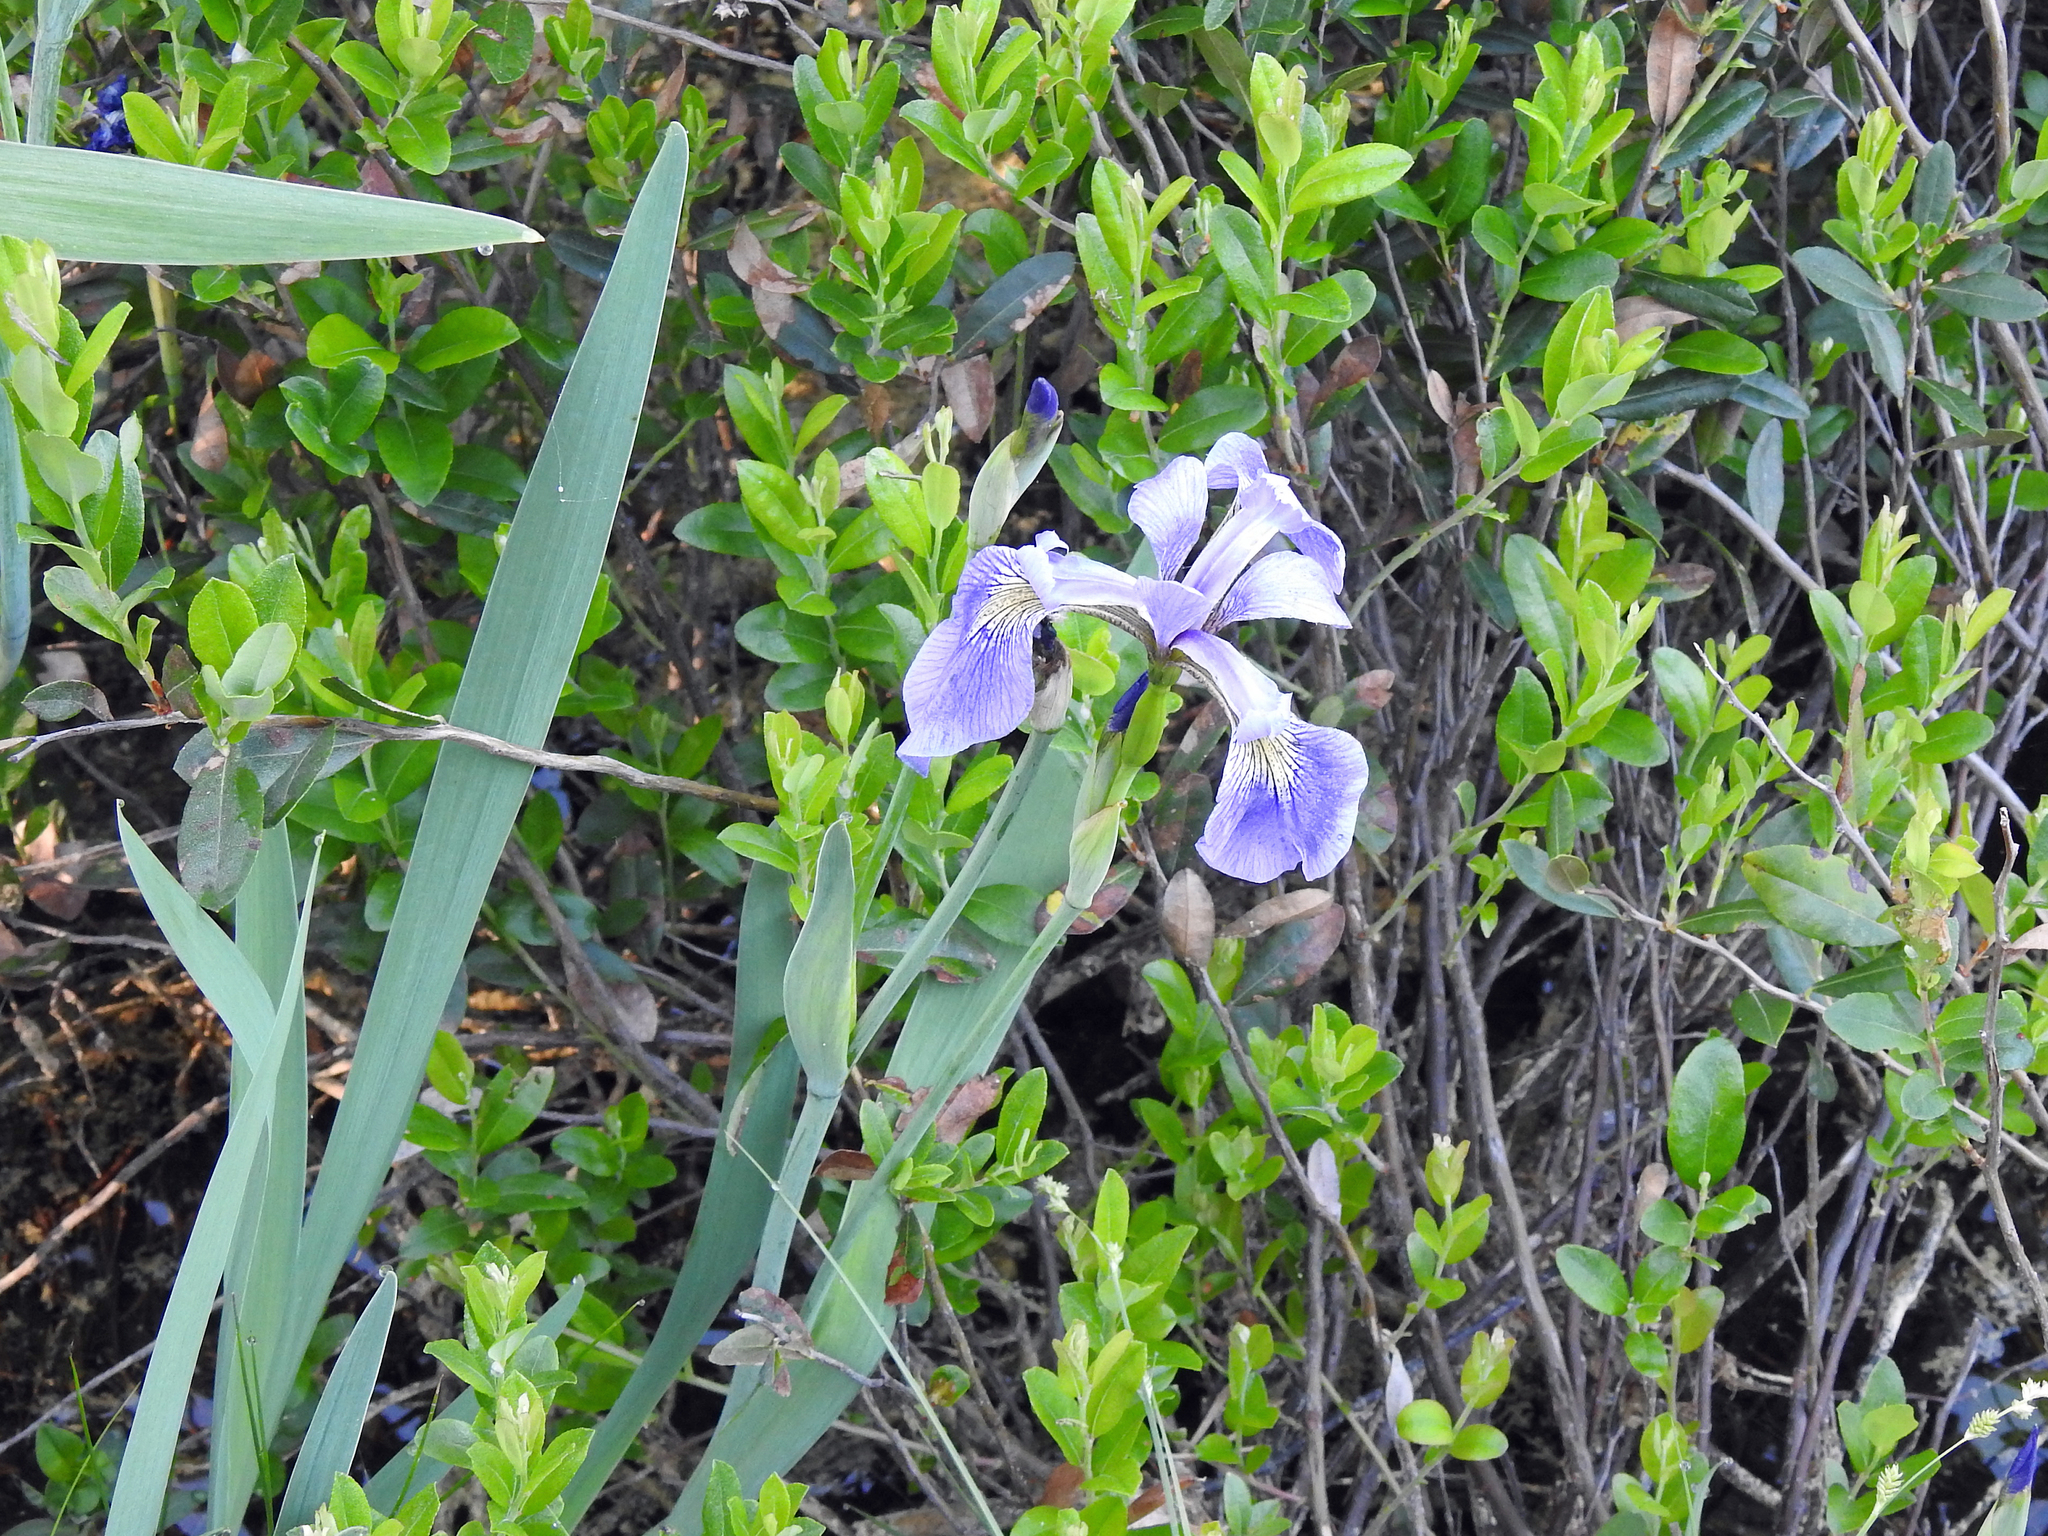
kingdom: Plantae
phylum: Tracheophyta
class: Liliopsida
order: Asparagales
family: Iridaceae
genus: Iris
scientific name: Iris versicolor
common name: Purple iris
